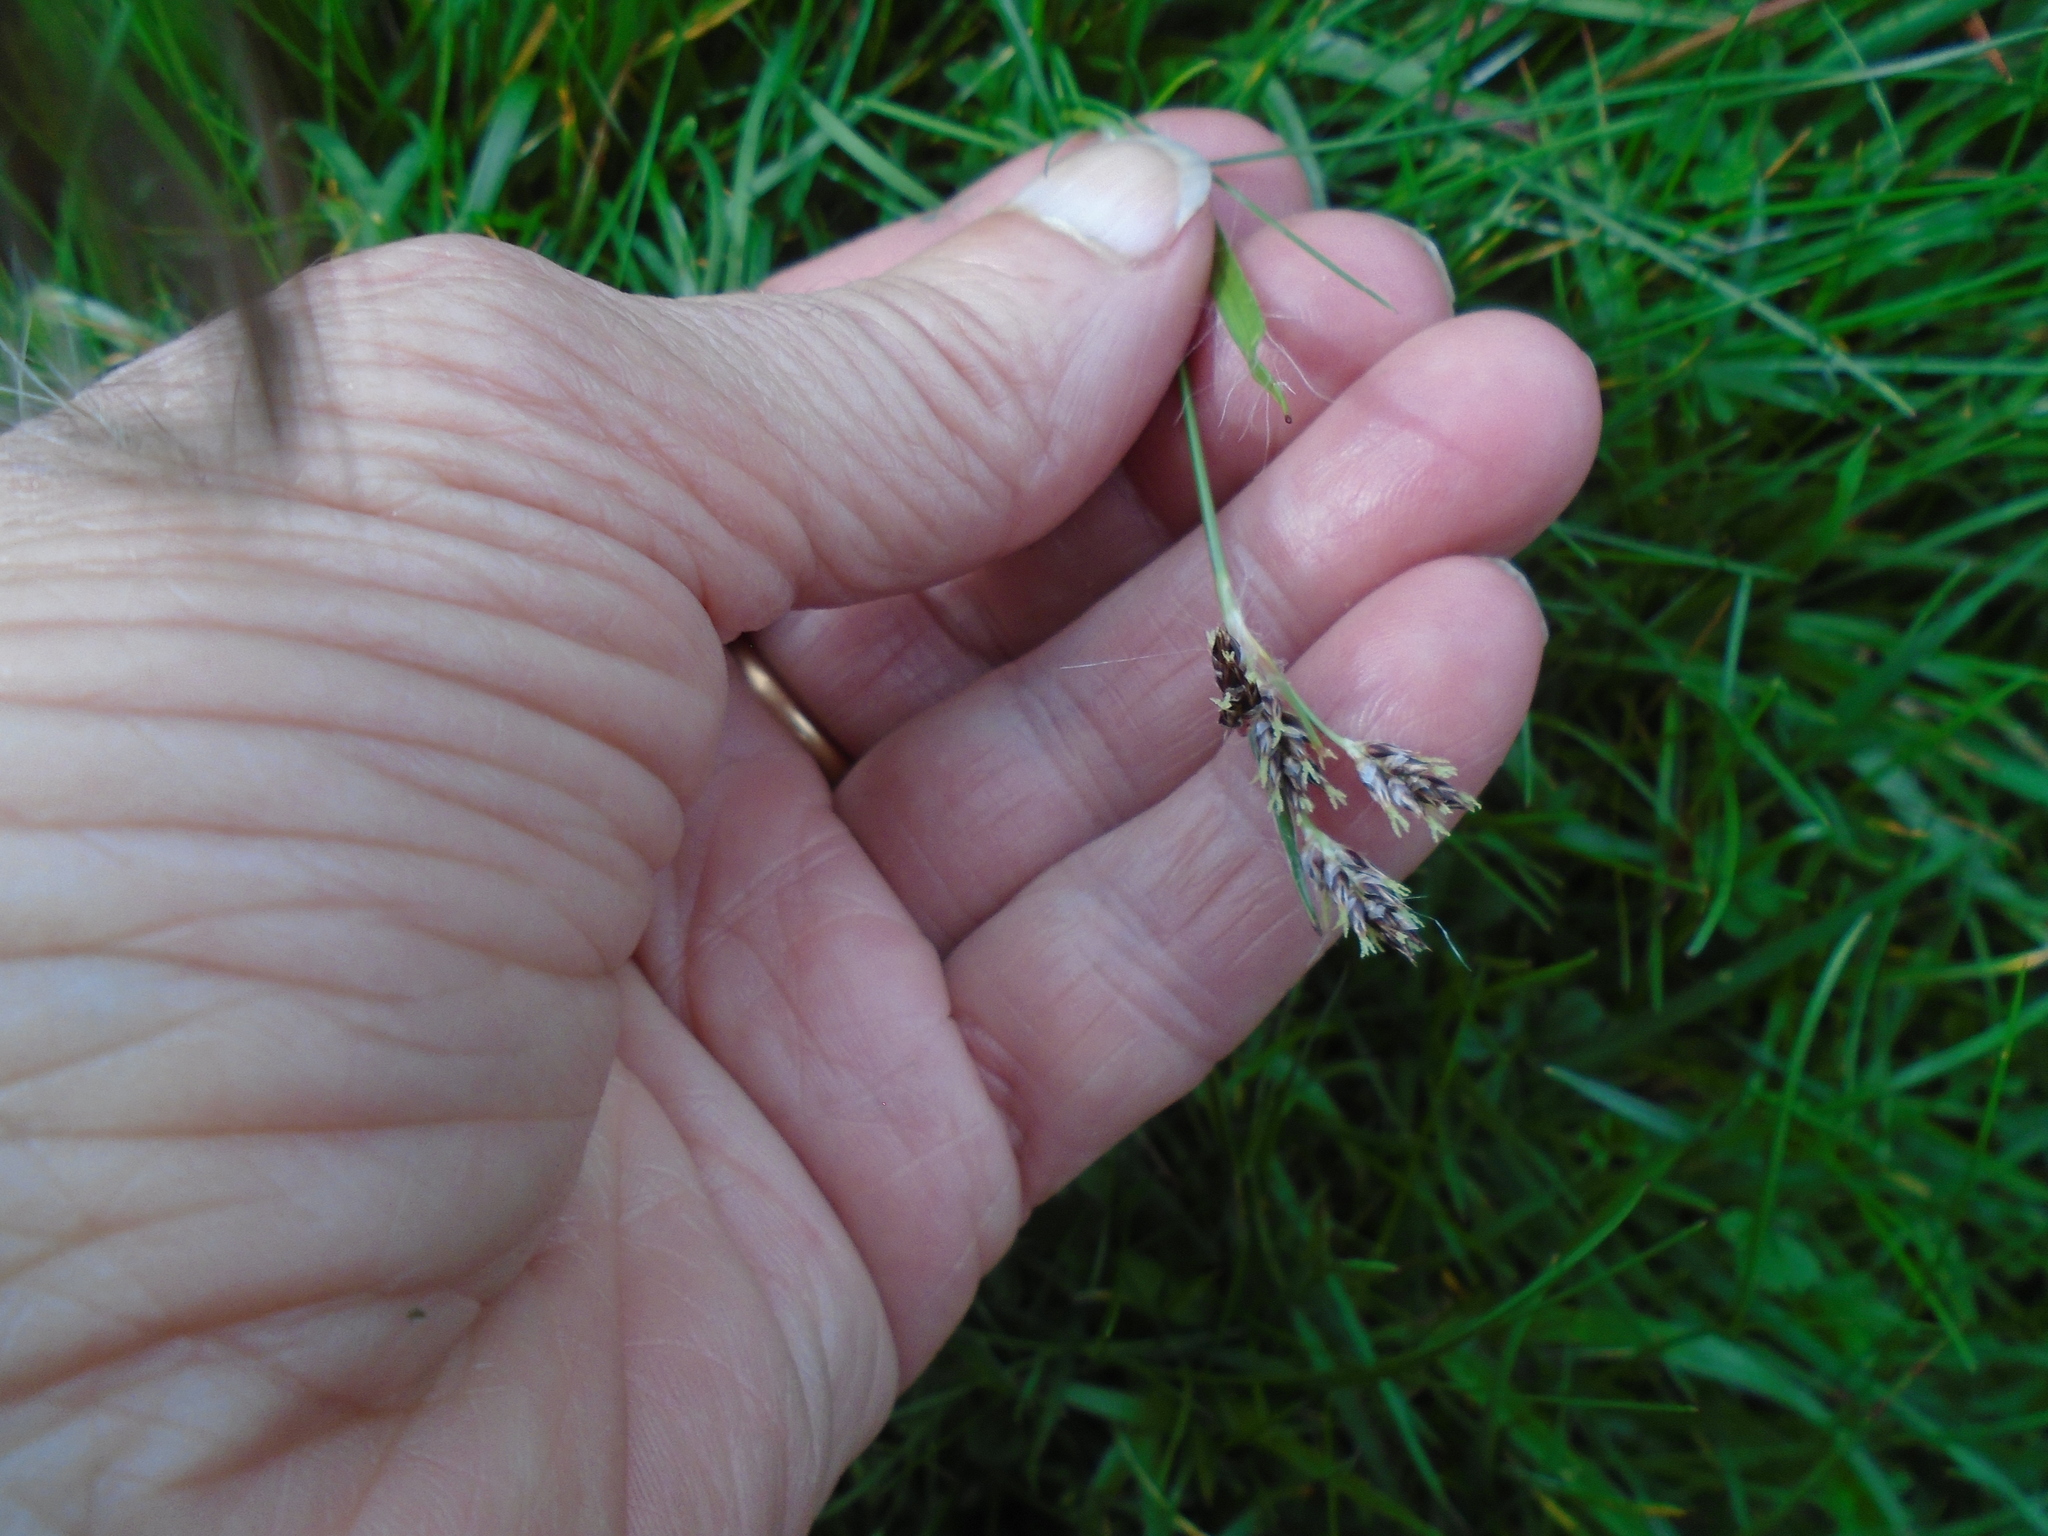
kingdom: Plantae
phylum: Tracheophyta
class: Liliopsida
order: Poales
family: Juncaceae
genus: Luzula
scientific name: Luzula campestris
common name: Field wood-rush
